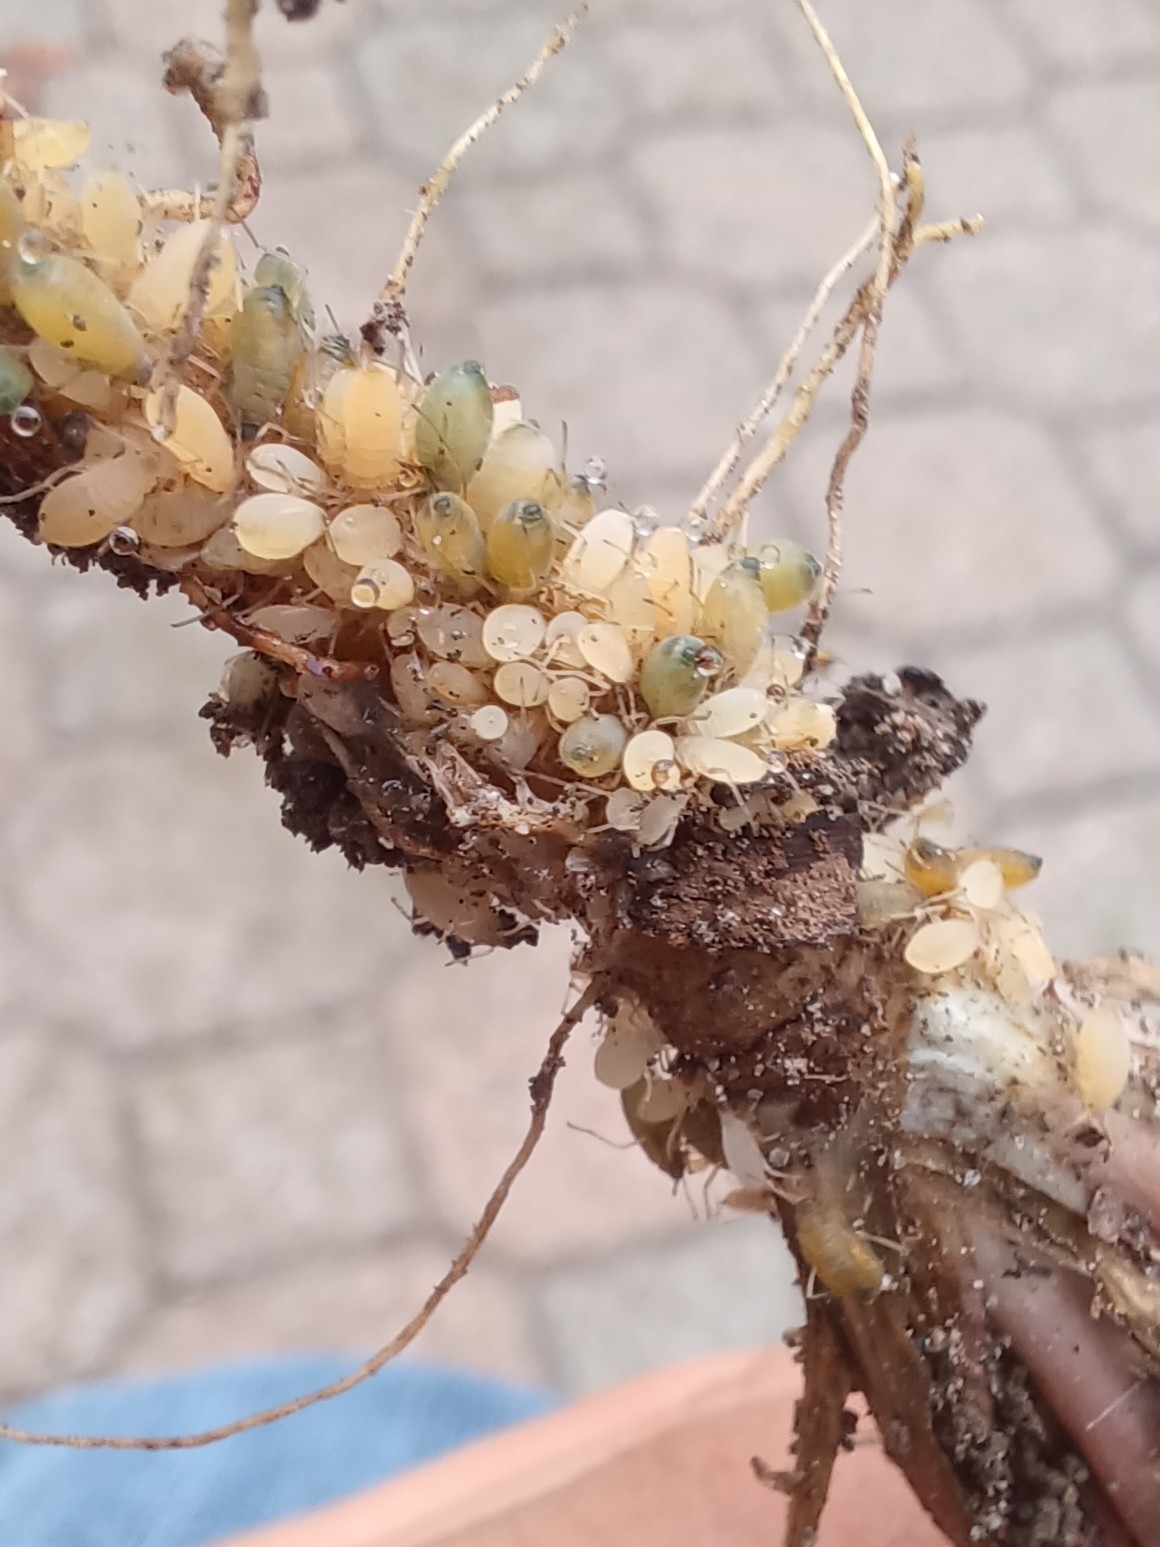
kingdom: Animalia
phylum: Arthropoda
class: Insecta
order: Hemiptera
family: Aphididae
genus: Trama
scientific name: Trama rara
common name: Aphid
